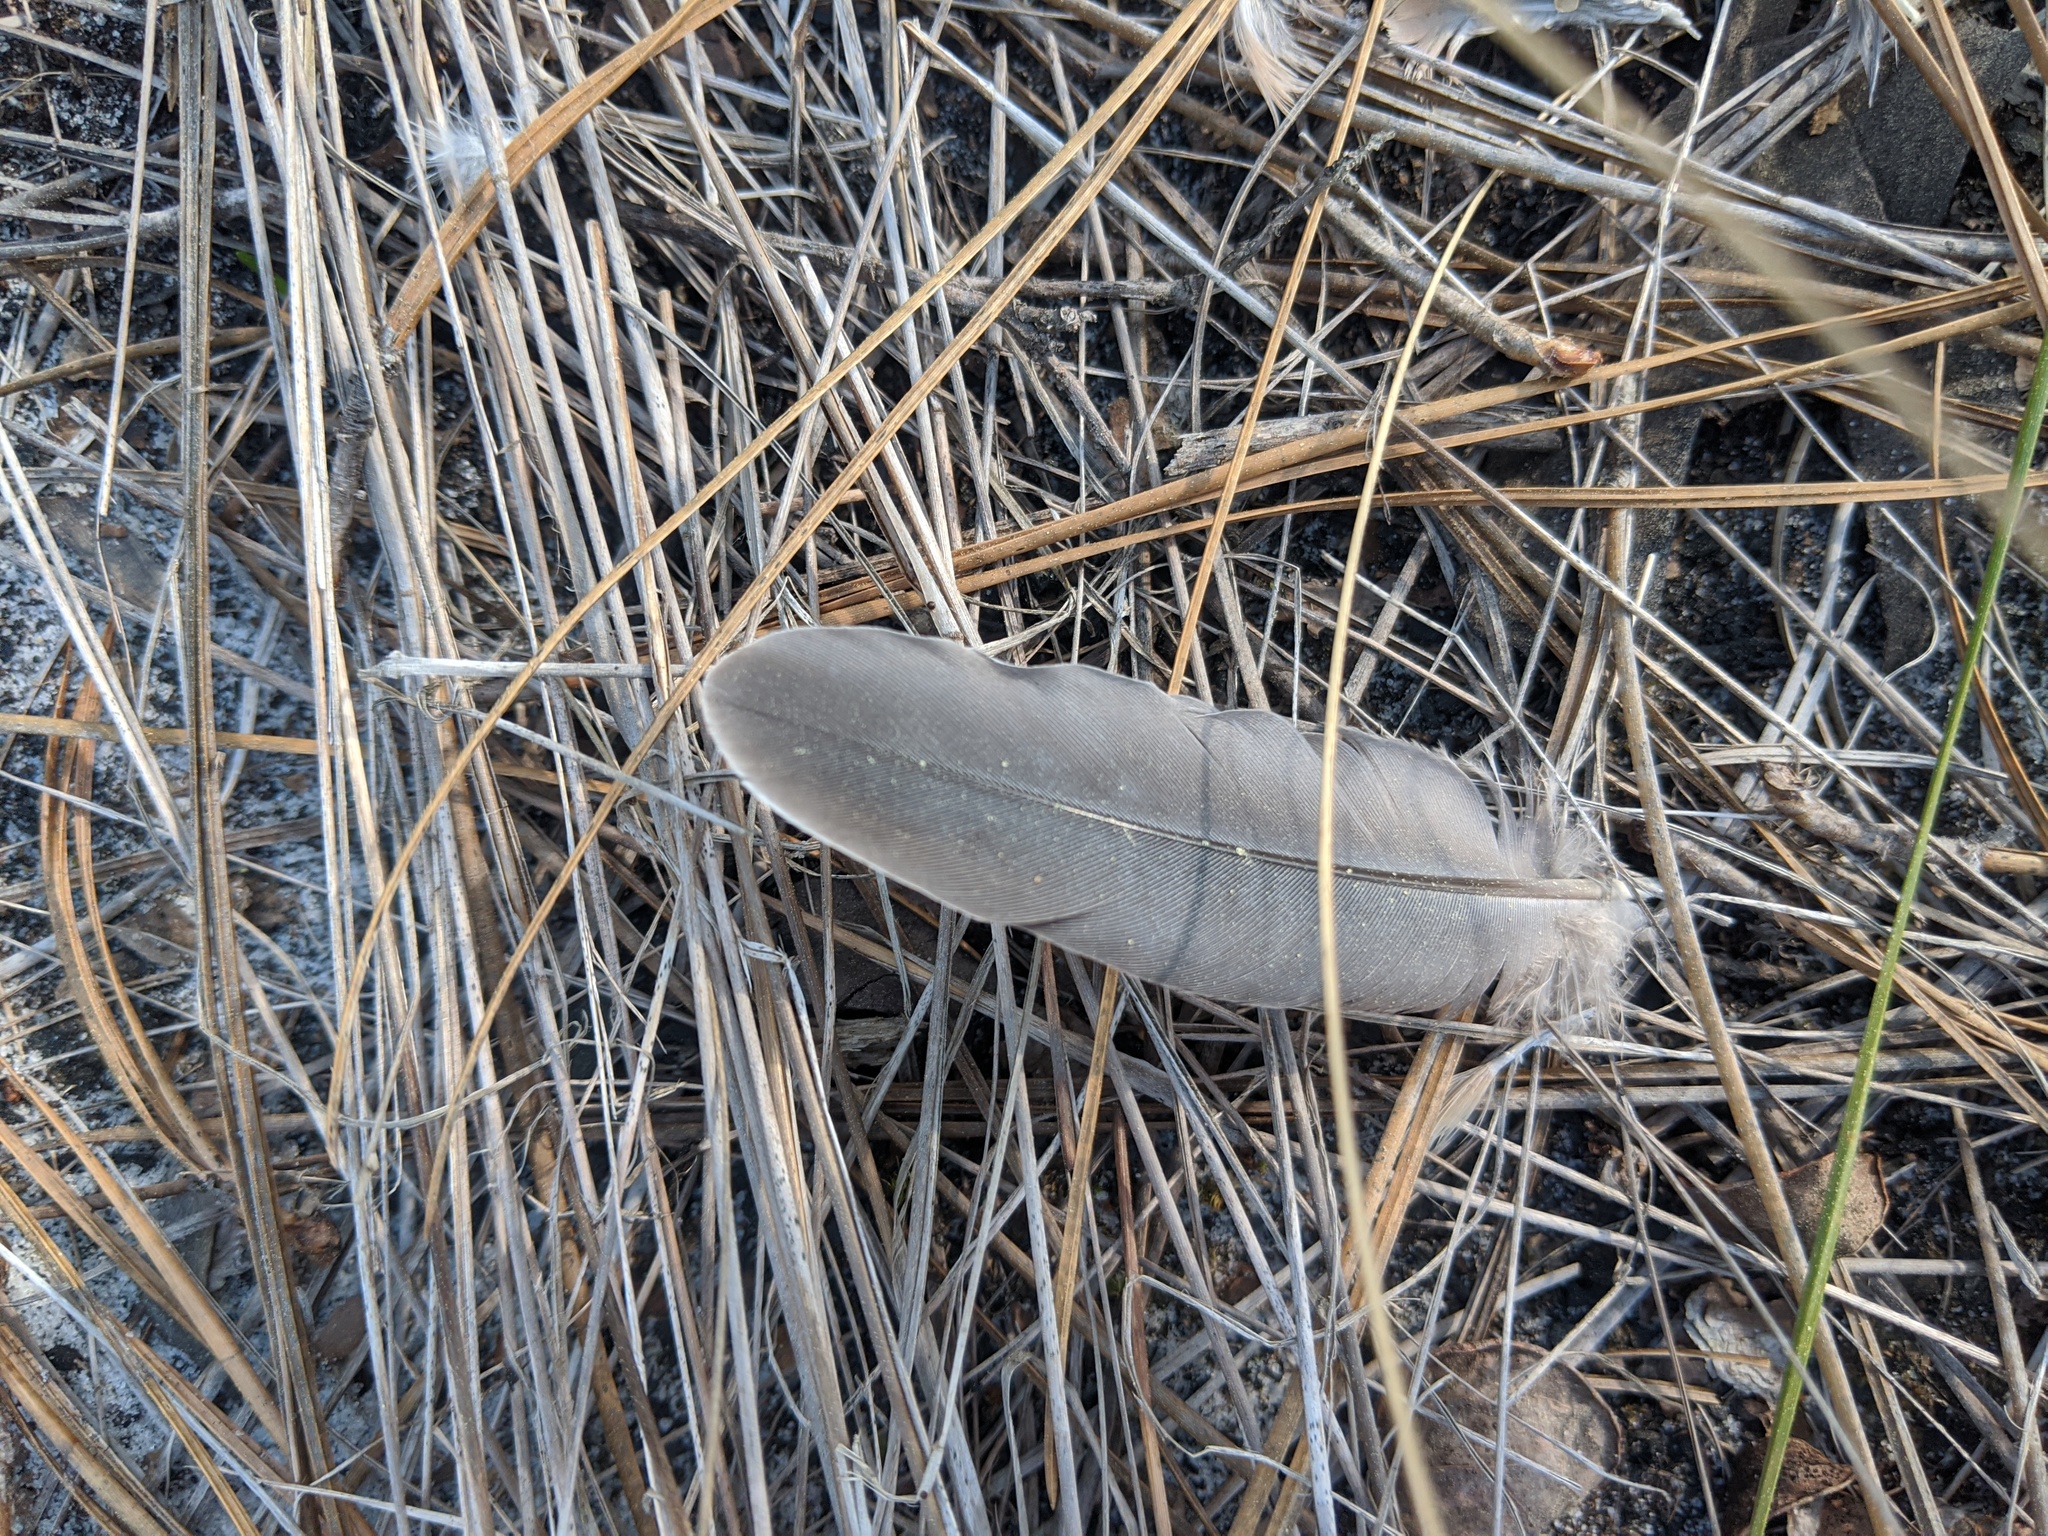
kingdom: Animalia
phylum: Chordata
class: Aves
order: Columbiformes
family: Columbidae
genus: Zenaida
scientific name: Zenaida macroura
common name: Mourning dove
